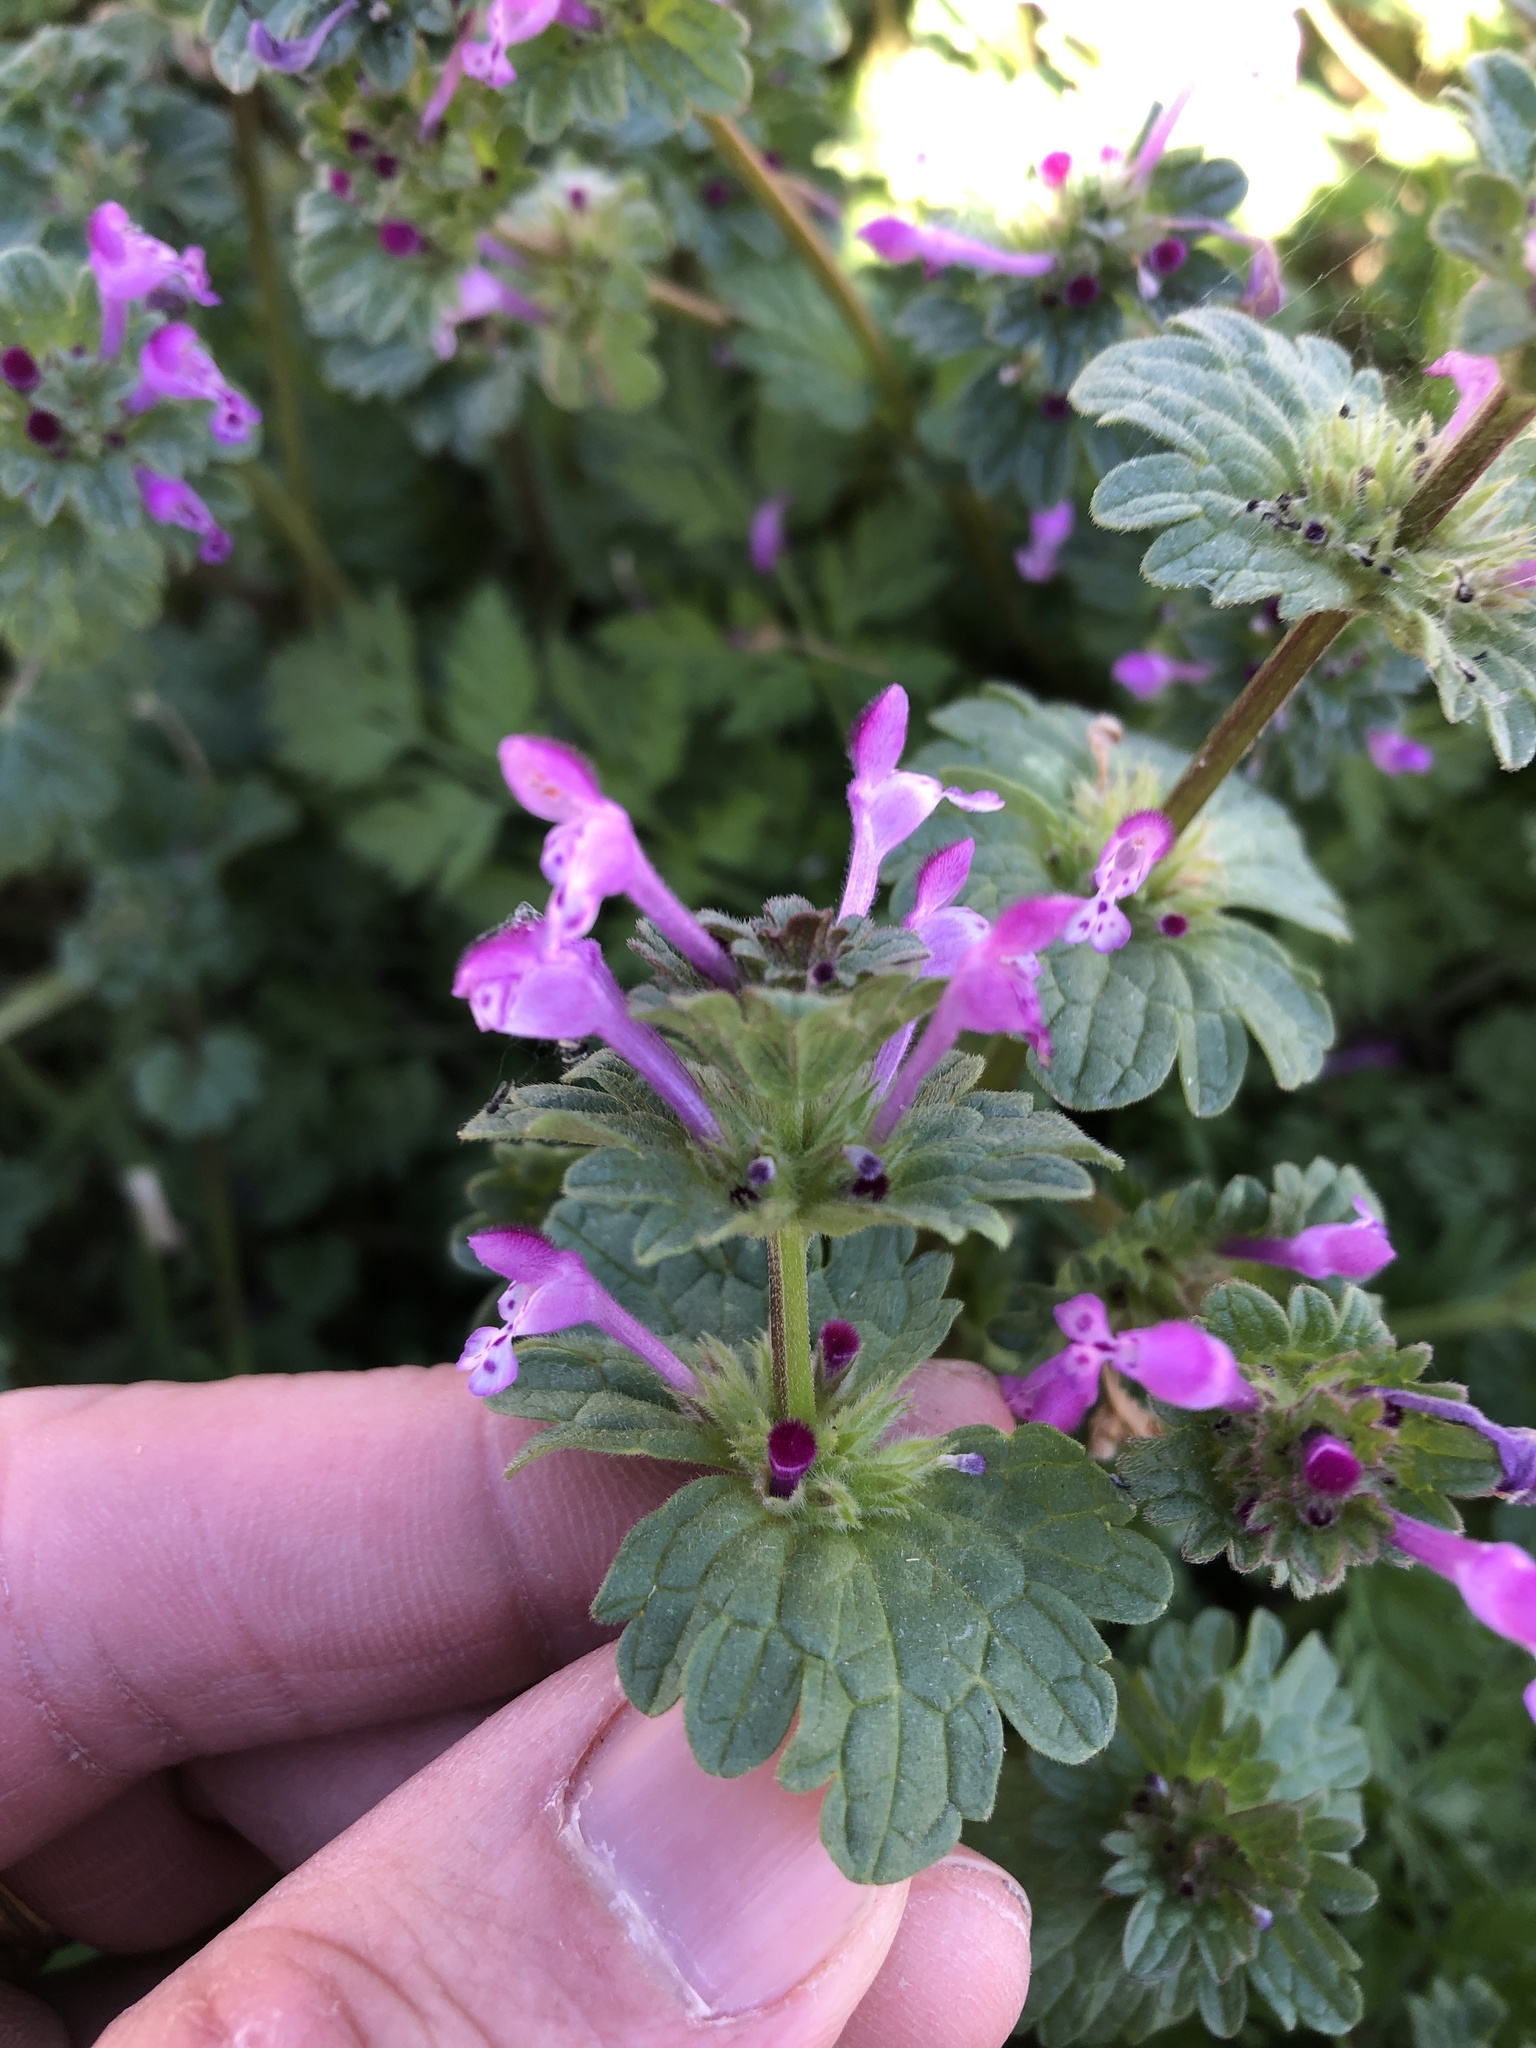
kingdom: Plantae
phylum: Tracheophyta
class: Magnoliopsida
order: Lamiales
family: Lamiaceae
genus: Lamium
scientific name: Lamium amplexicaule
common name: Henbit dead-nettle
